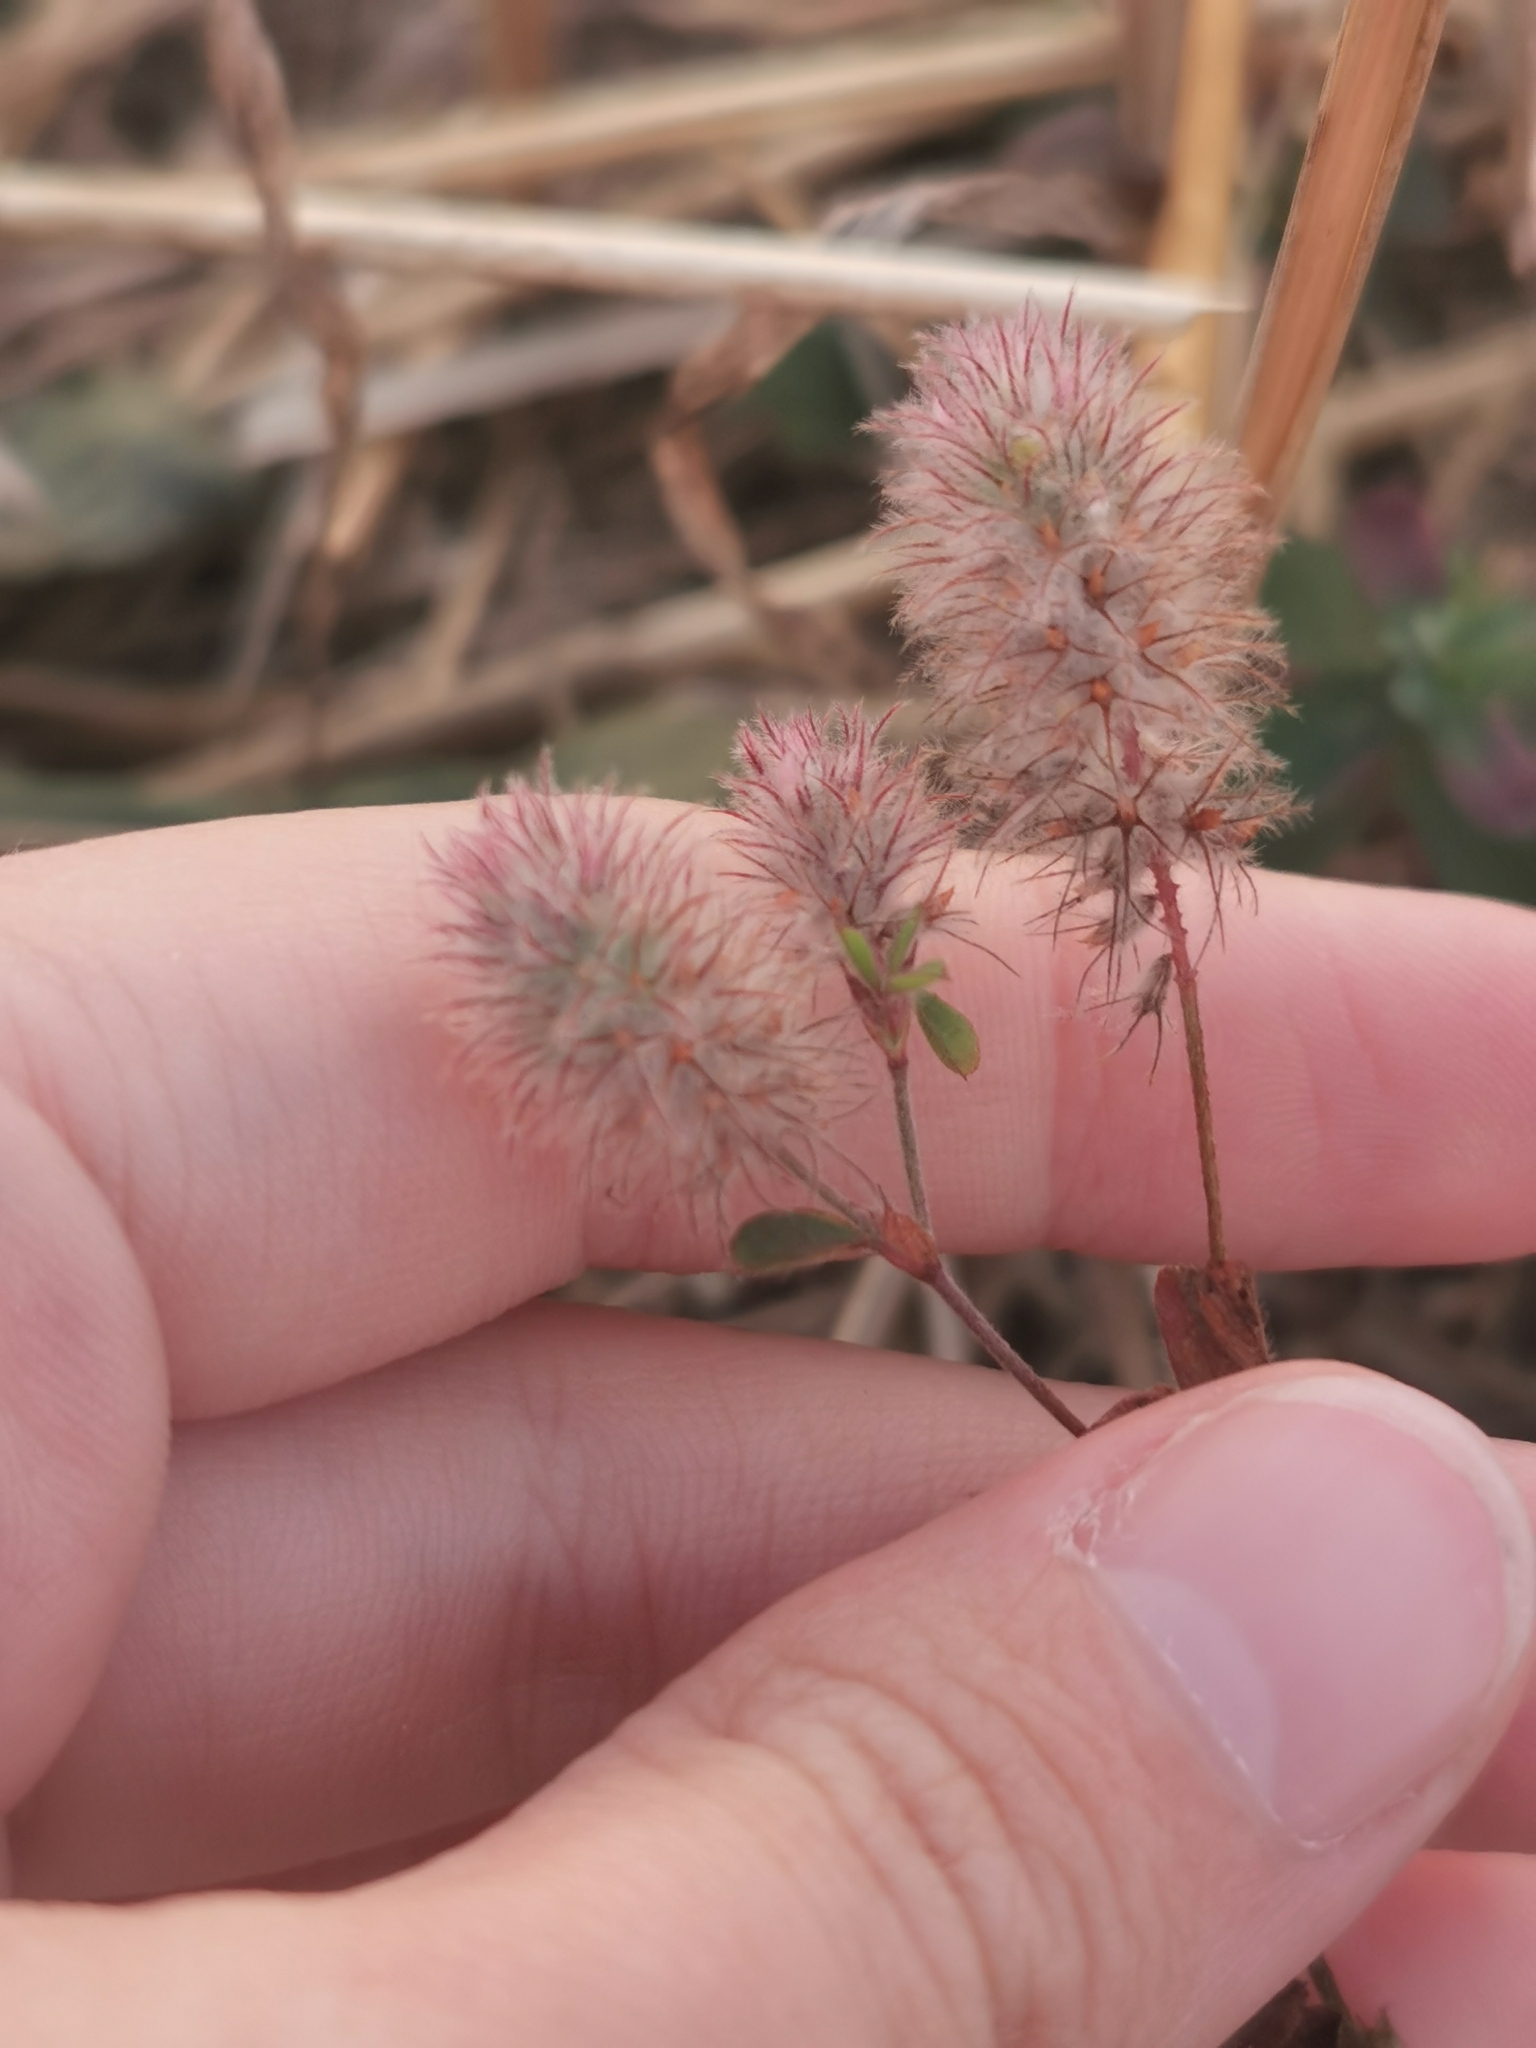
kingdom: Plantae
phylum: Tracheophyta
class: Magnoliopsida
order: Fabales
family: Fabaceae
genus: Trifolium
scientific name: Trifolium arvense
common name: Hare's-foot clover
